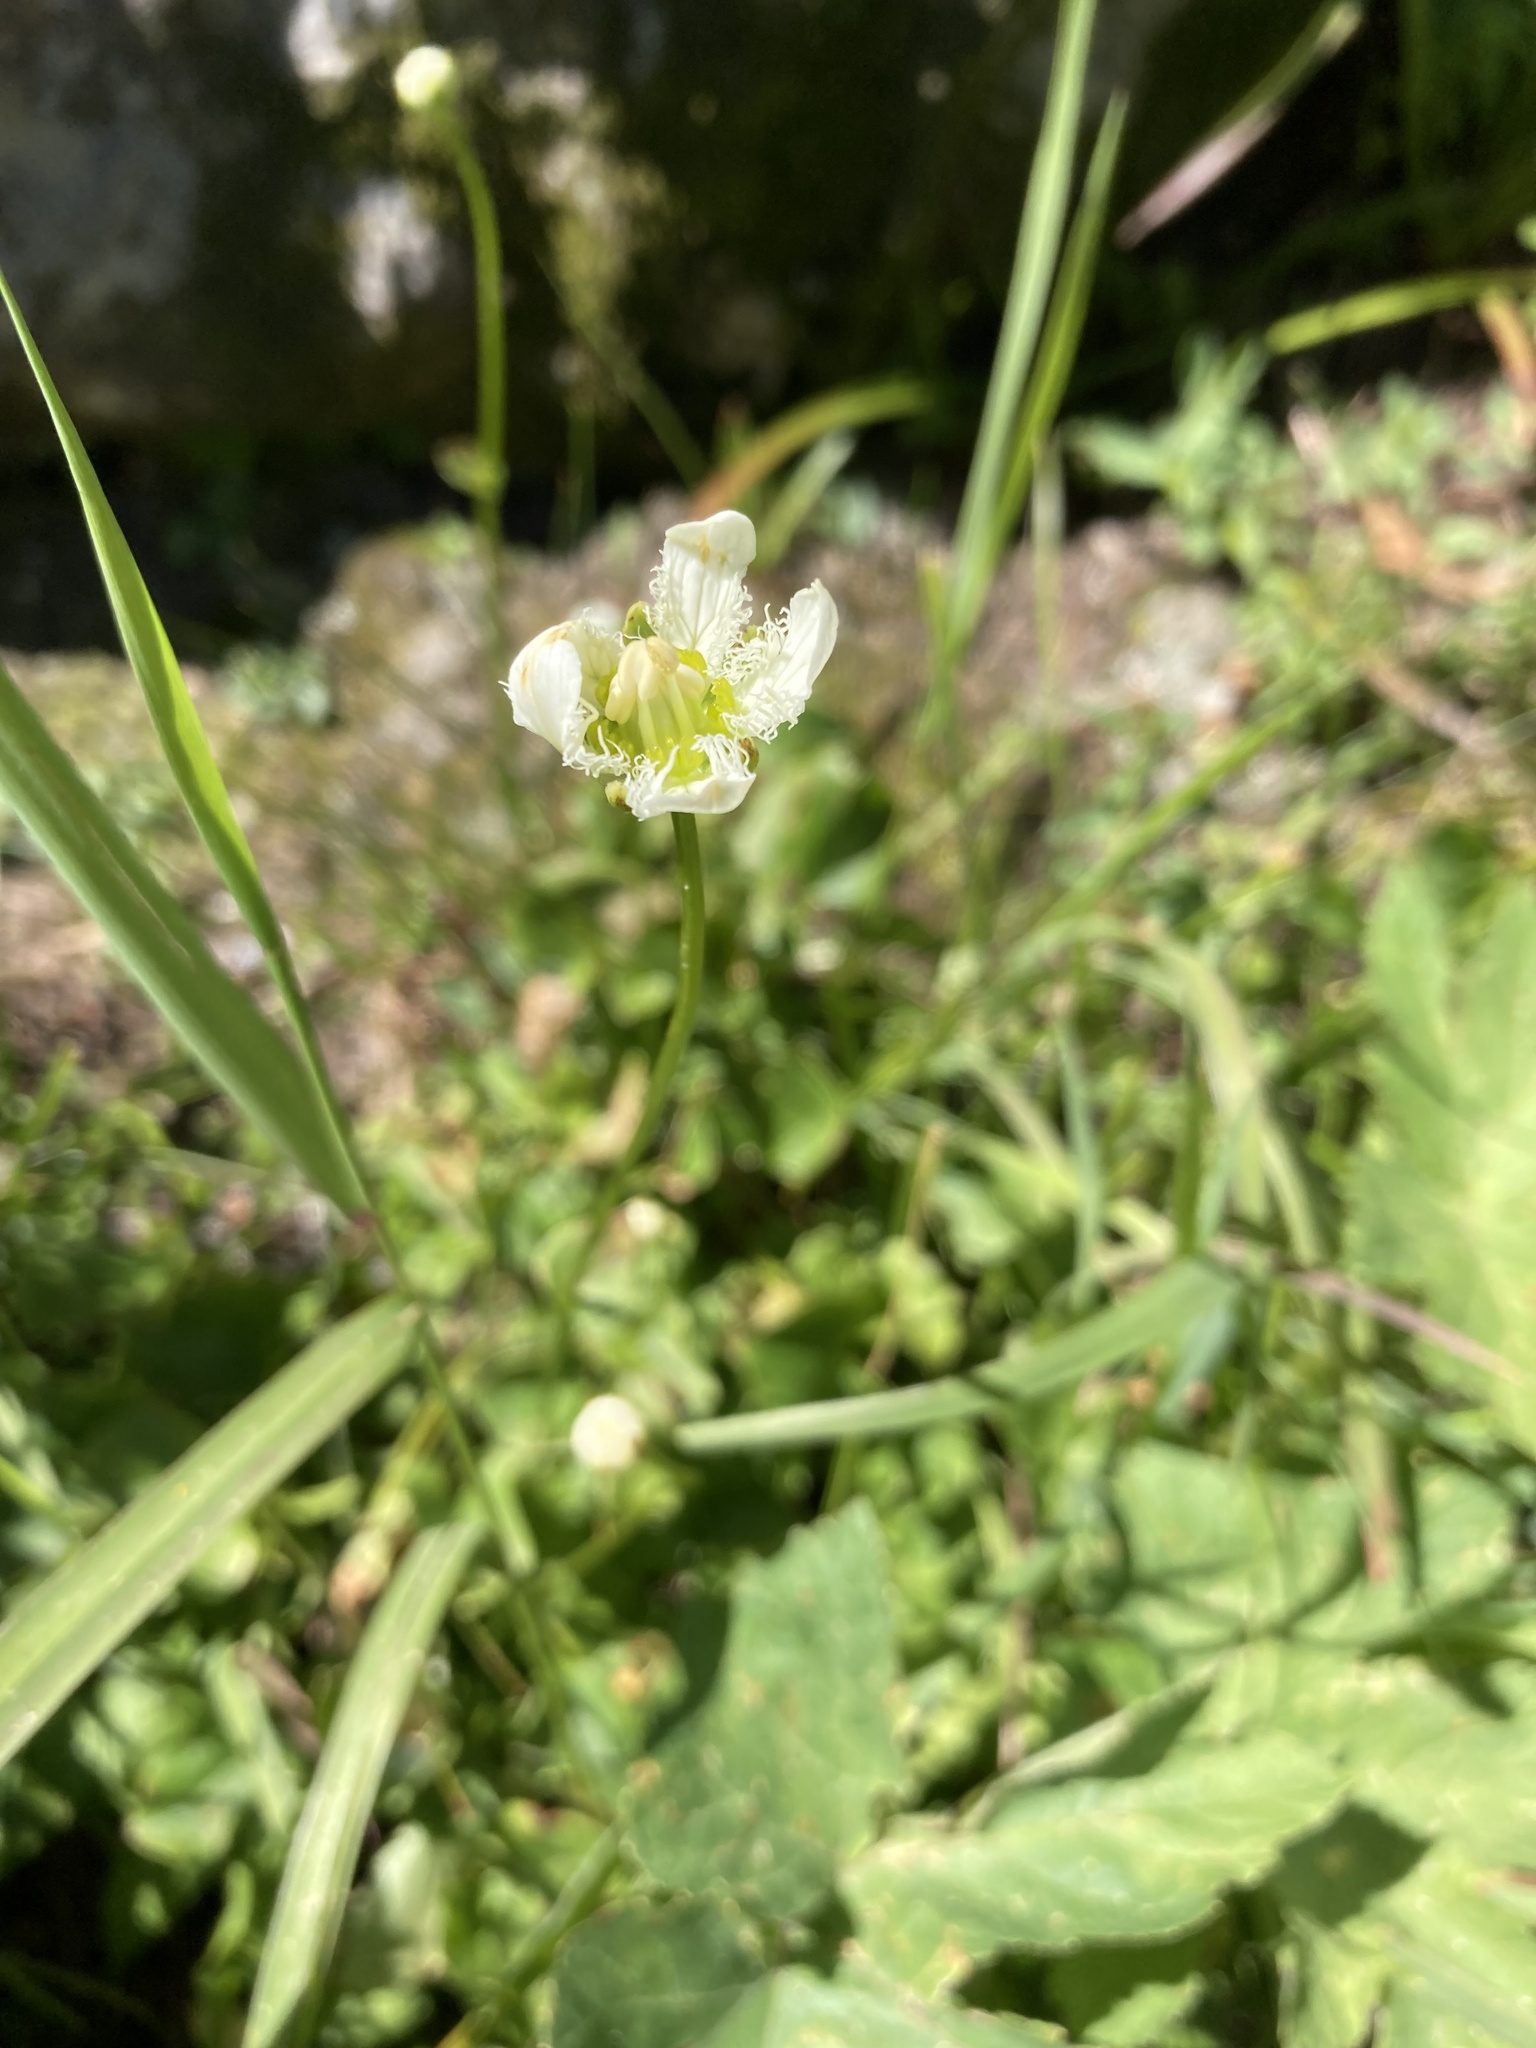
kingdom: Plantae
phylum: Tracheophyta
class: Magnoliopsida
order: Celastrales
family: Parnassiaceae
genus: Parnassia
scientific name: Parnassia fimbriata
